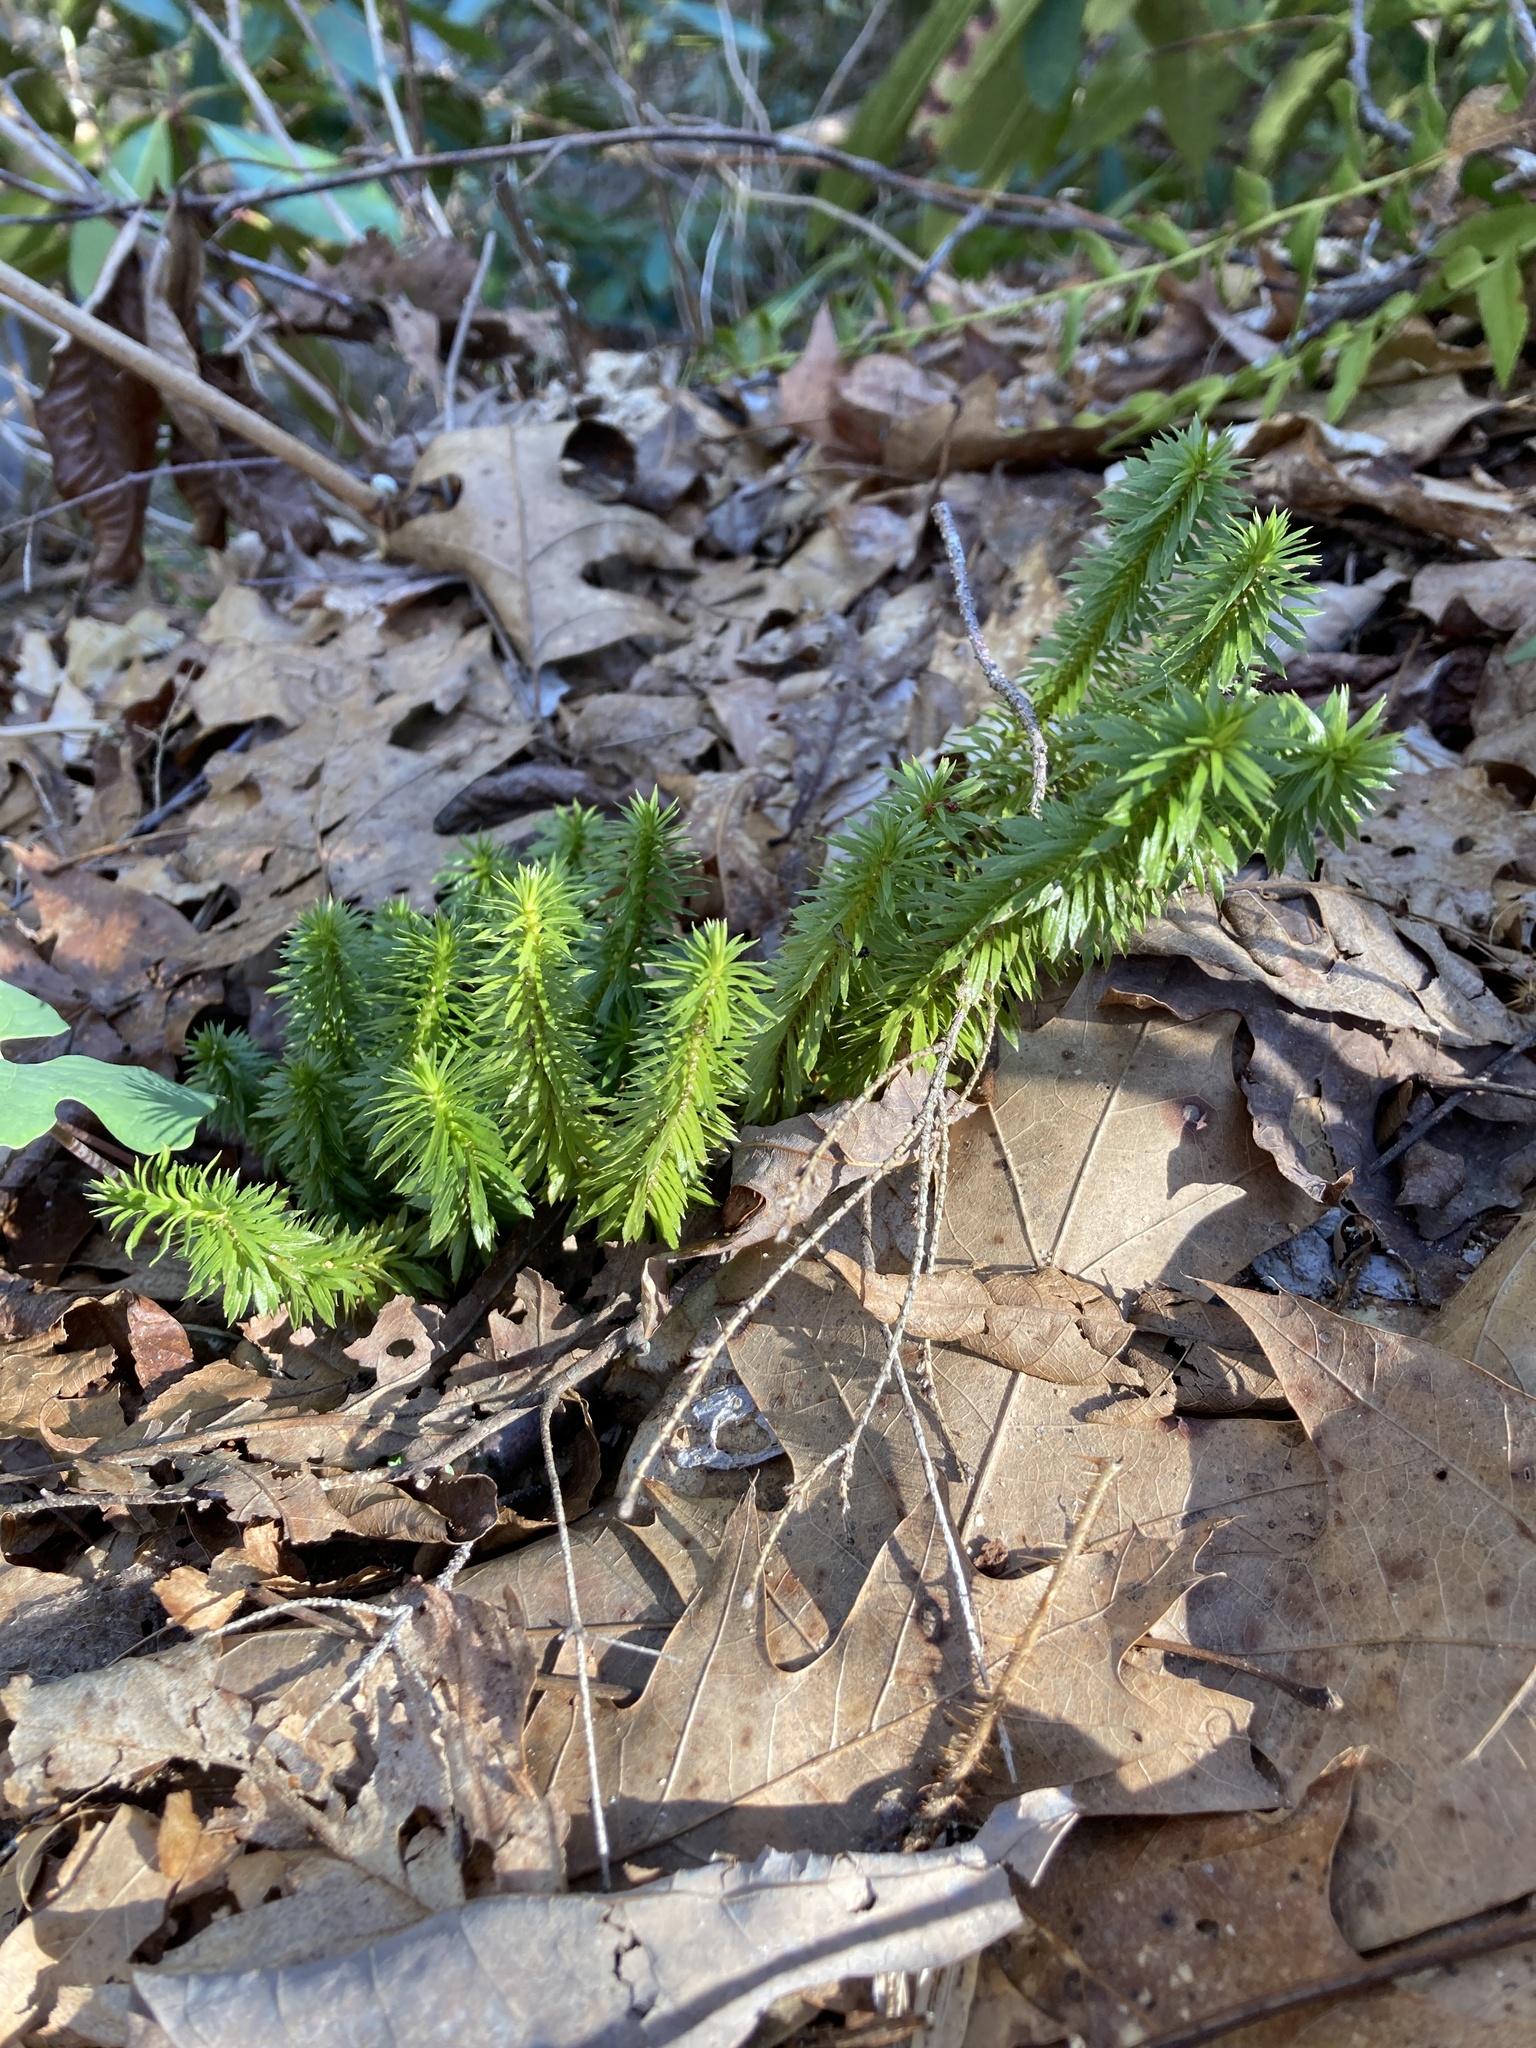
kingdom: Plantae
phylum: Tracheophyta
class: Lycopodiopsida
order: Lycopodiales
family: Lycopodiaceae
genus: Huperzia
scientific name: Huperzia lucidula
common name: Shining clubmoss
